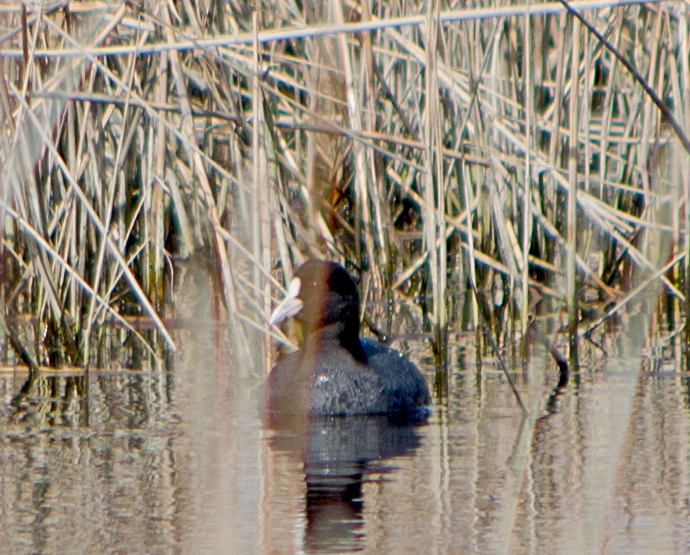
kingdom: Animalia
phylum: Chordata
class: Aves
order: Gruiformes
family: Rallidae
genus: Fulica
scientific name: Fulica atra
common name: Eurasian coot
